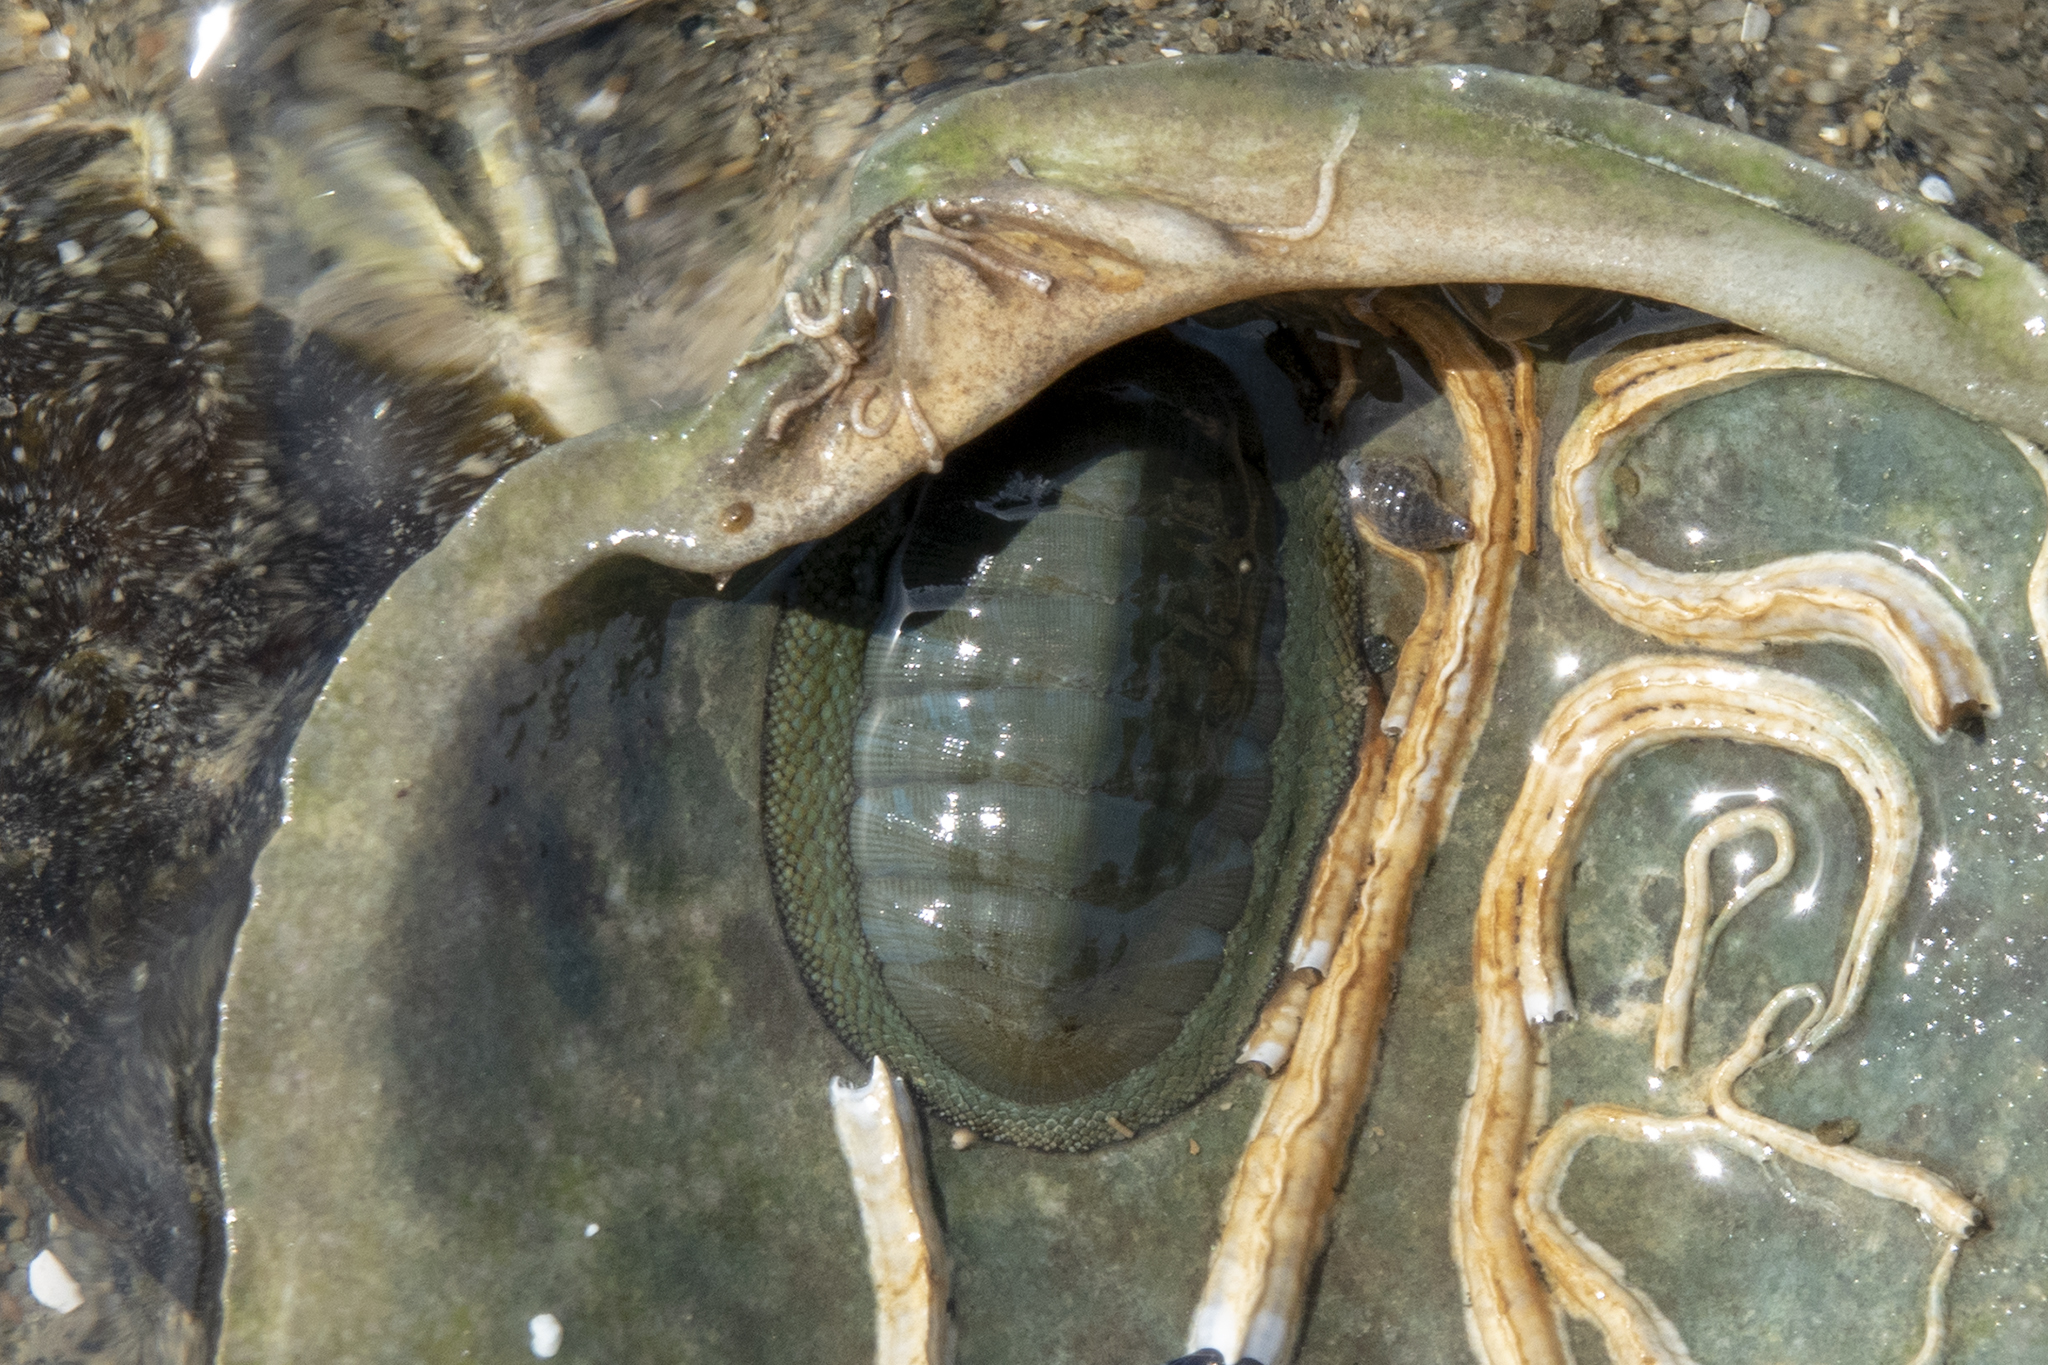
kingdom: Animalia
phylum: Mollusca
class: Polyplacophora
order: Chitonida
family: Chitonidae
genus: Chiton
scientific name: Chiton glaucus
